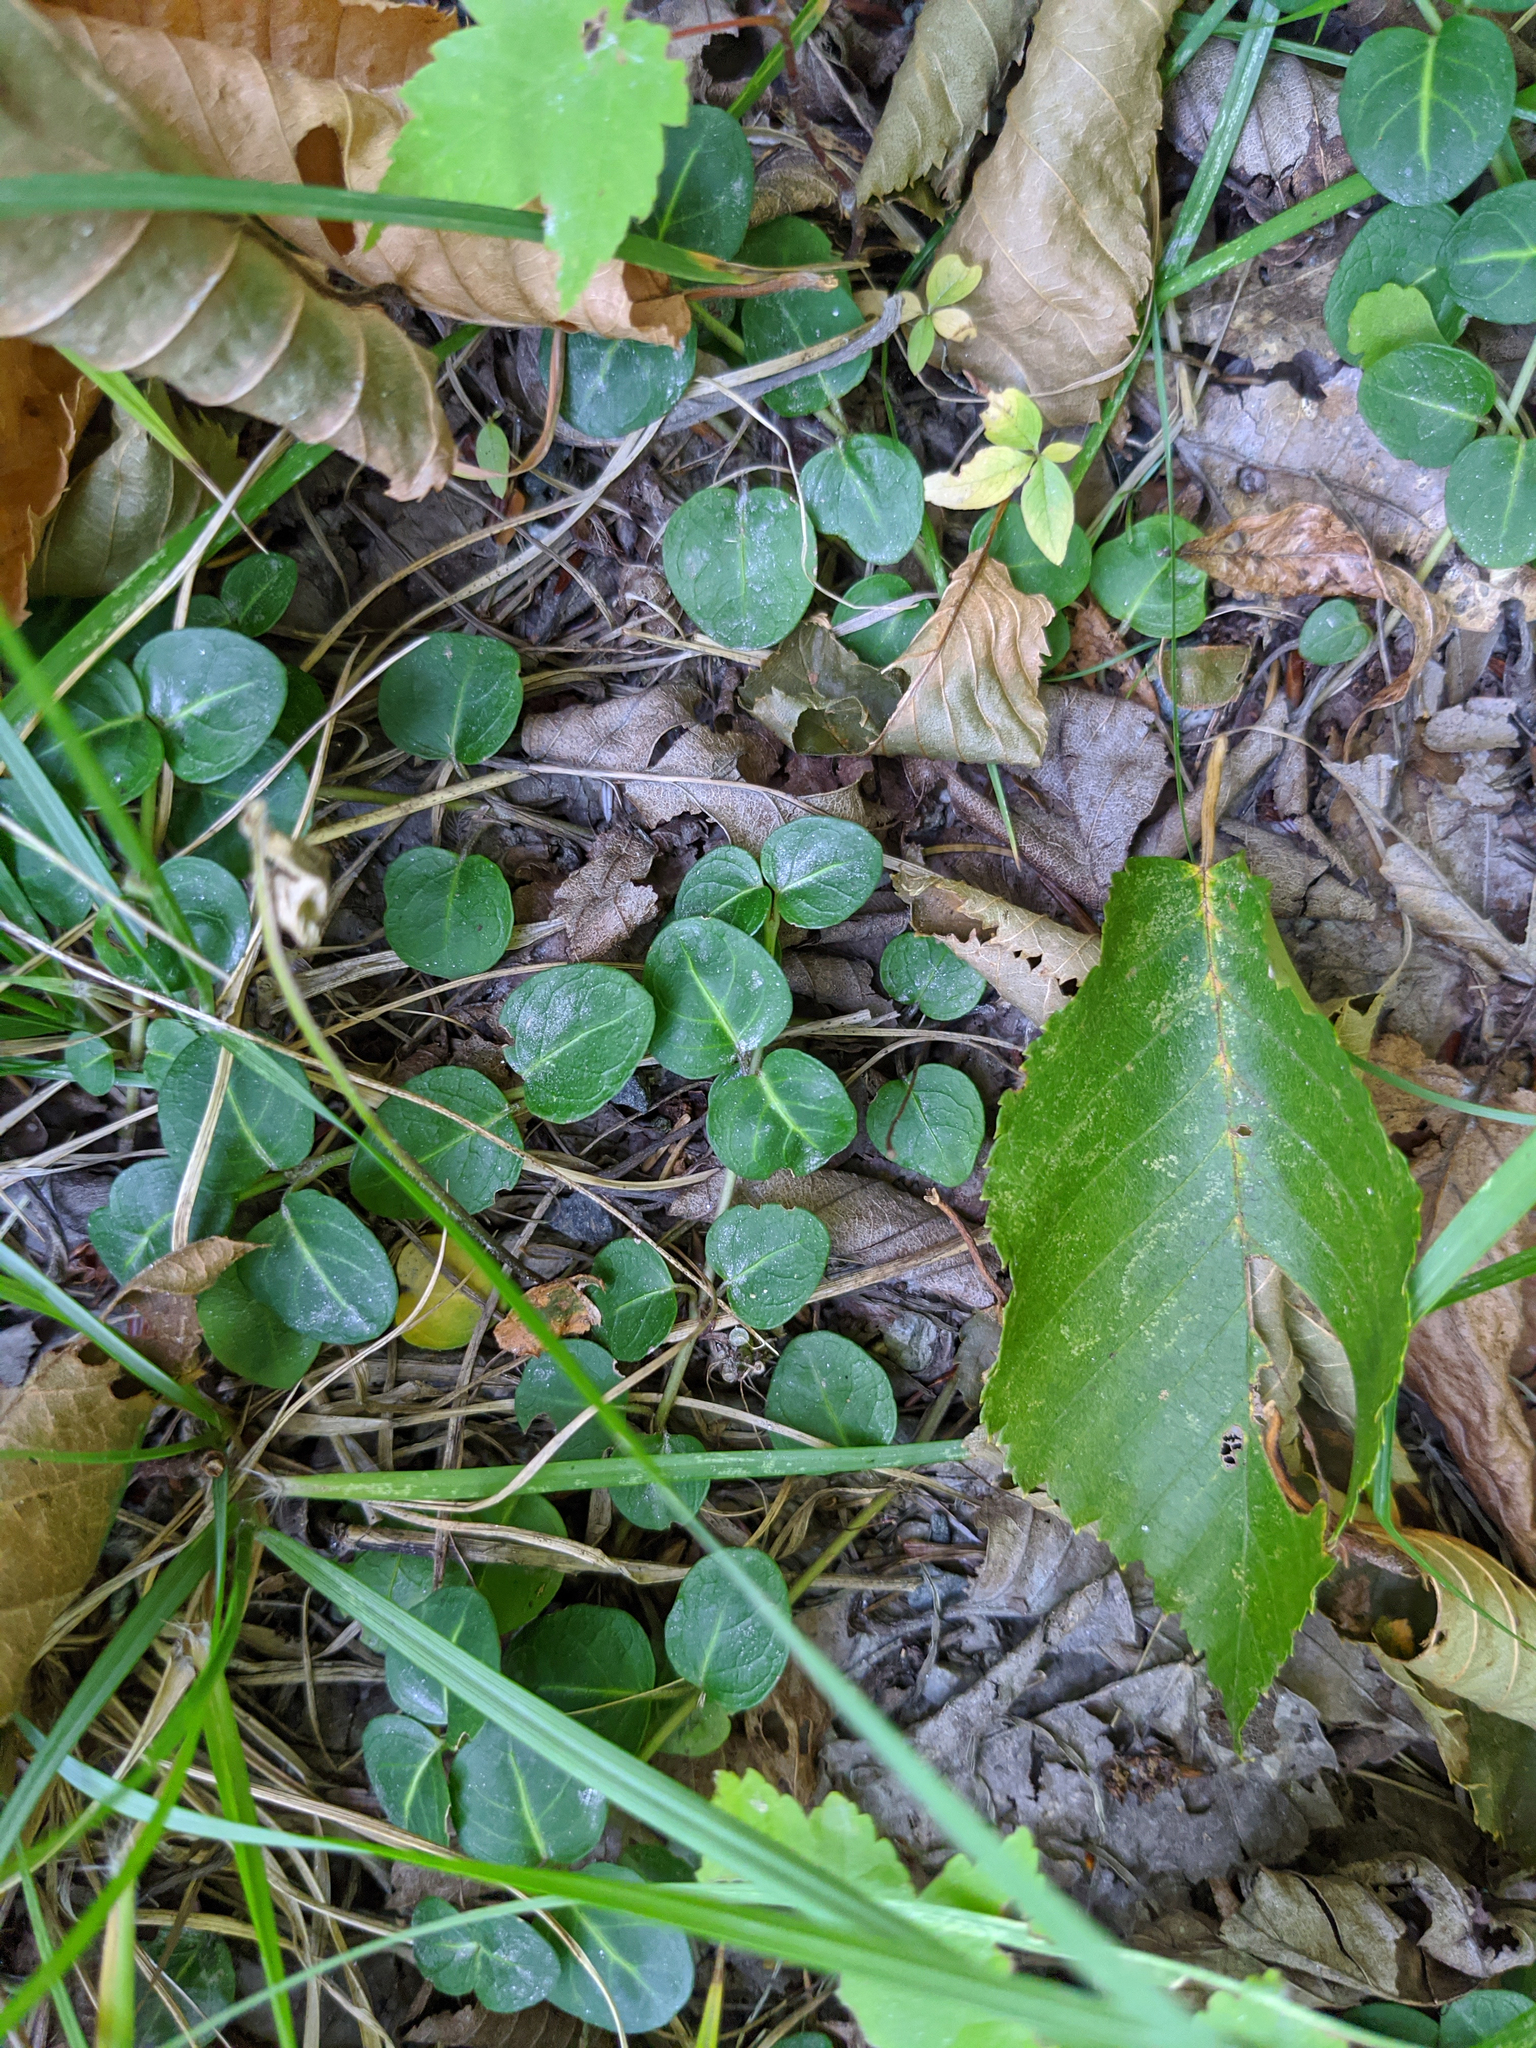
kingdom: Plantae
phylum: Tracheophyta
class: Magnoliopsida
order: Gentianales
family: Rubiaceae
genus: Mitchella
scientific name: Mitchella repens
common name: Partridge-berry
